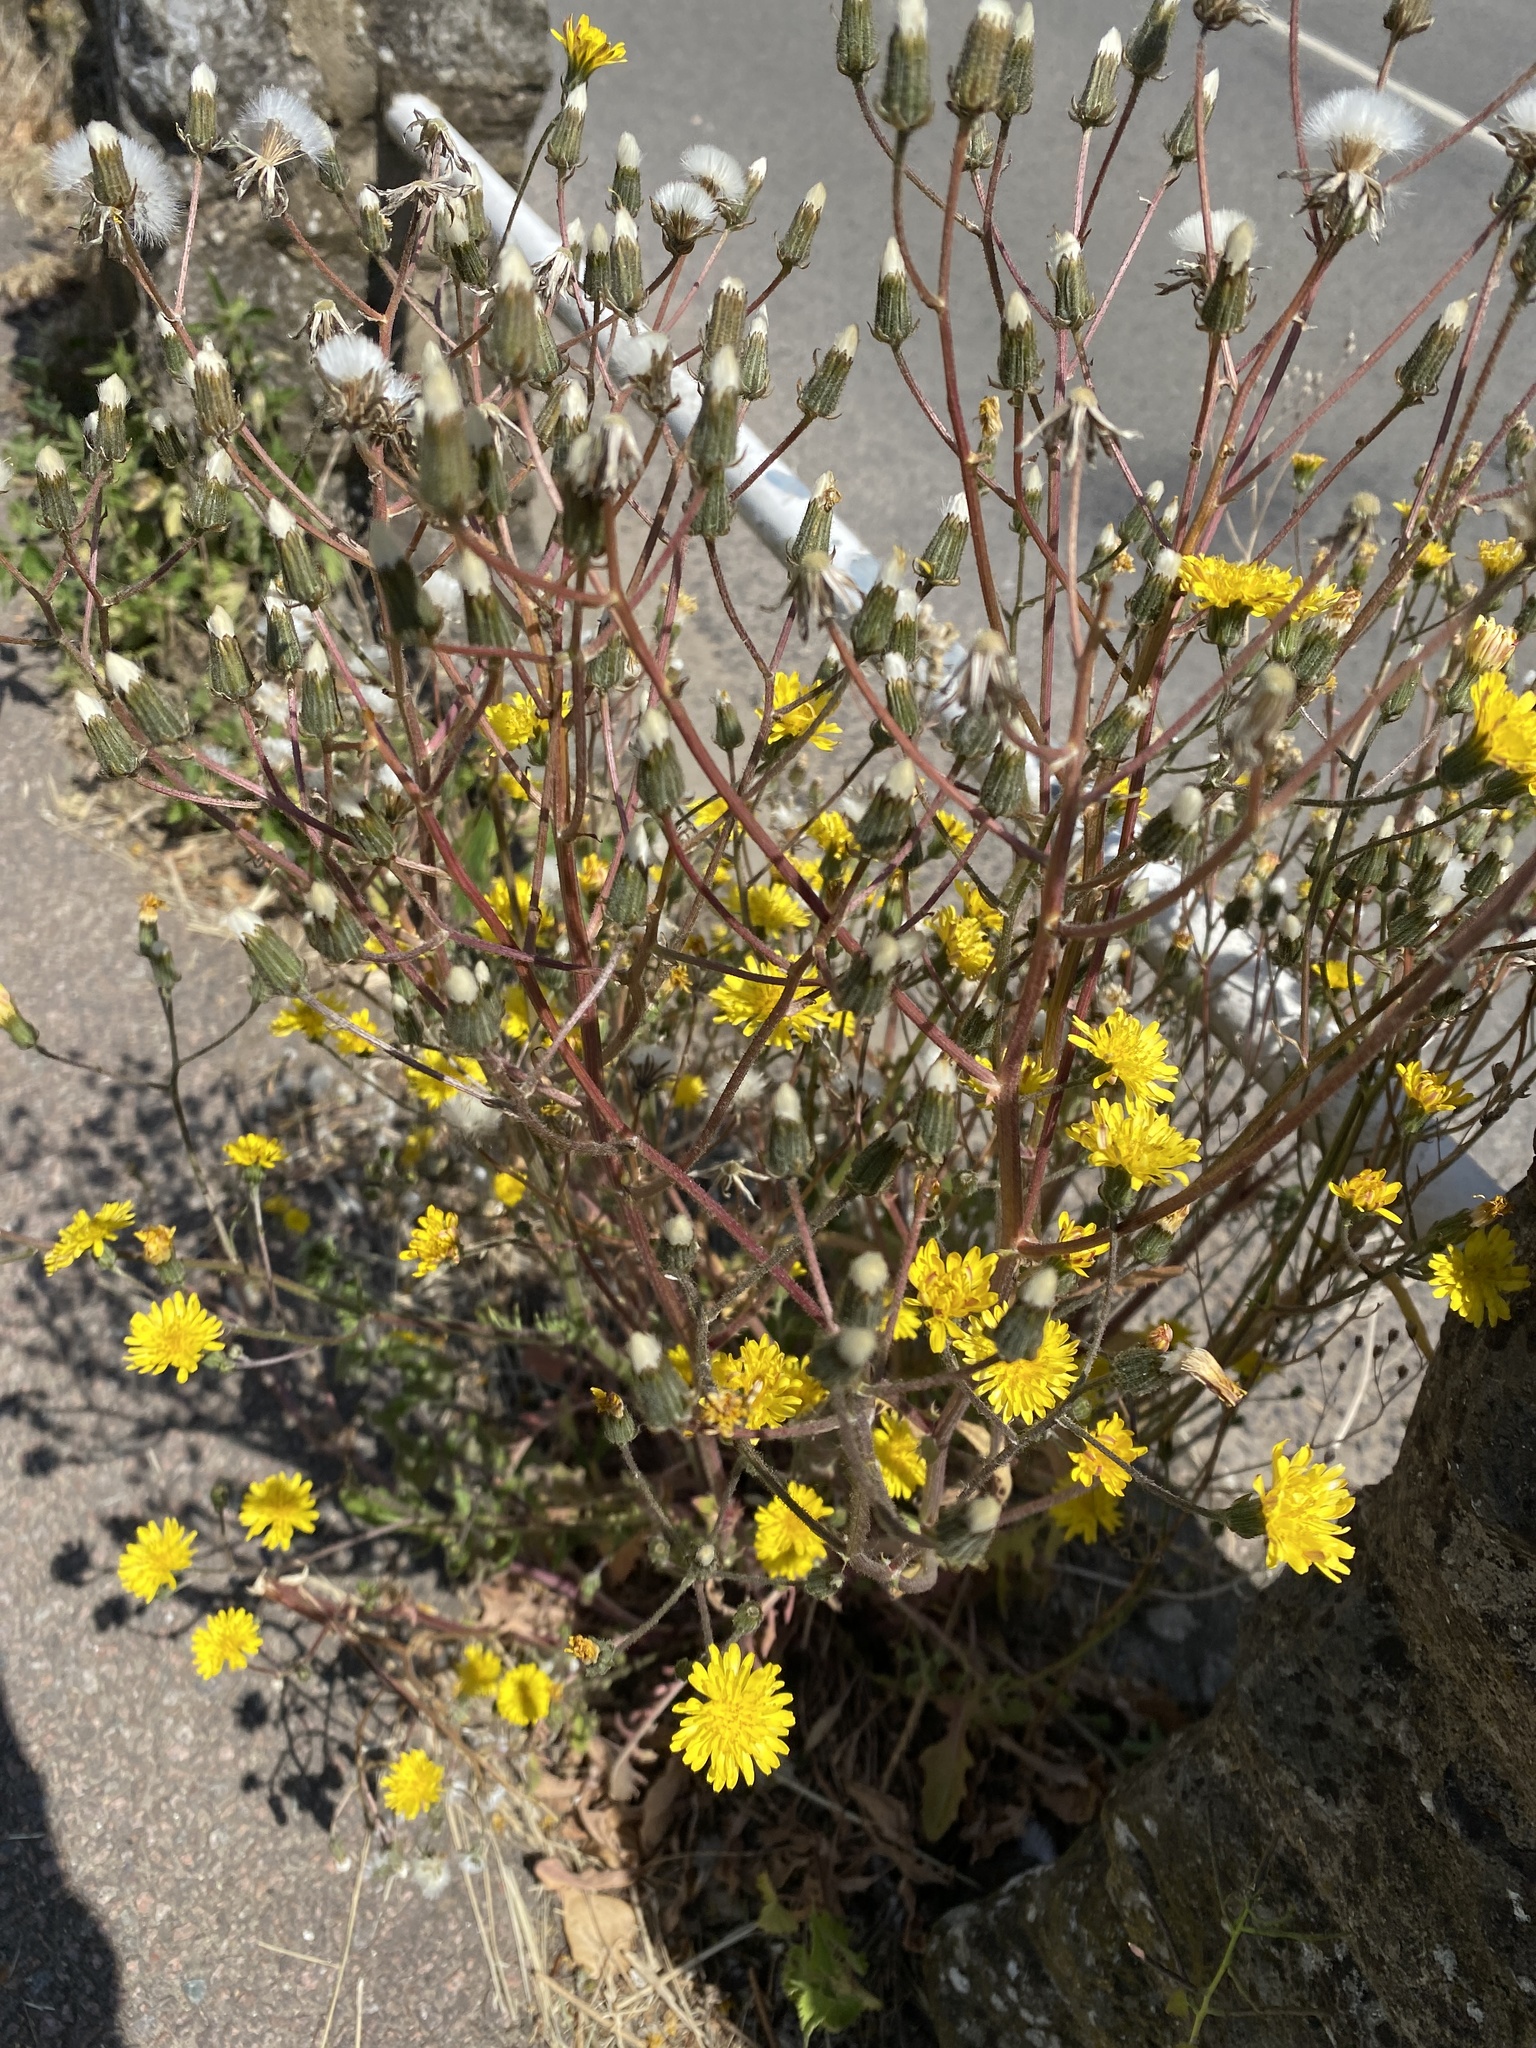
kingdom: Plantae
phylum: Tracheophyta
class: Magnoliopsida
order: Asterales
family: Asteraceae
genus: Crepis
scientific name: Crepis capillaris
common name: Smooth hawksbeard
